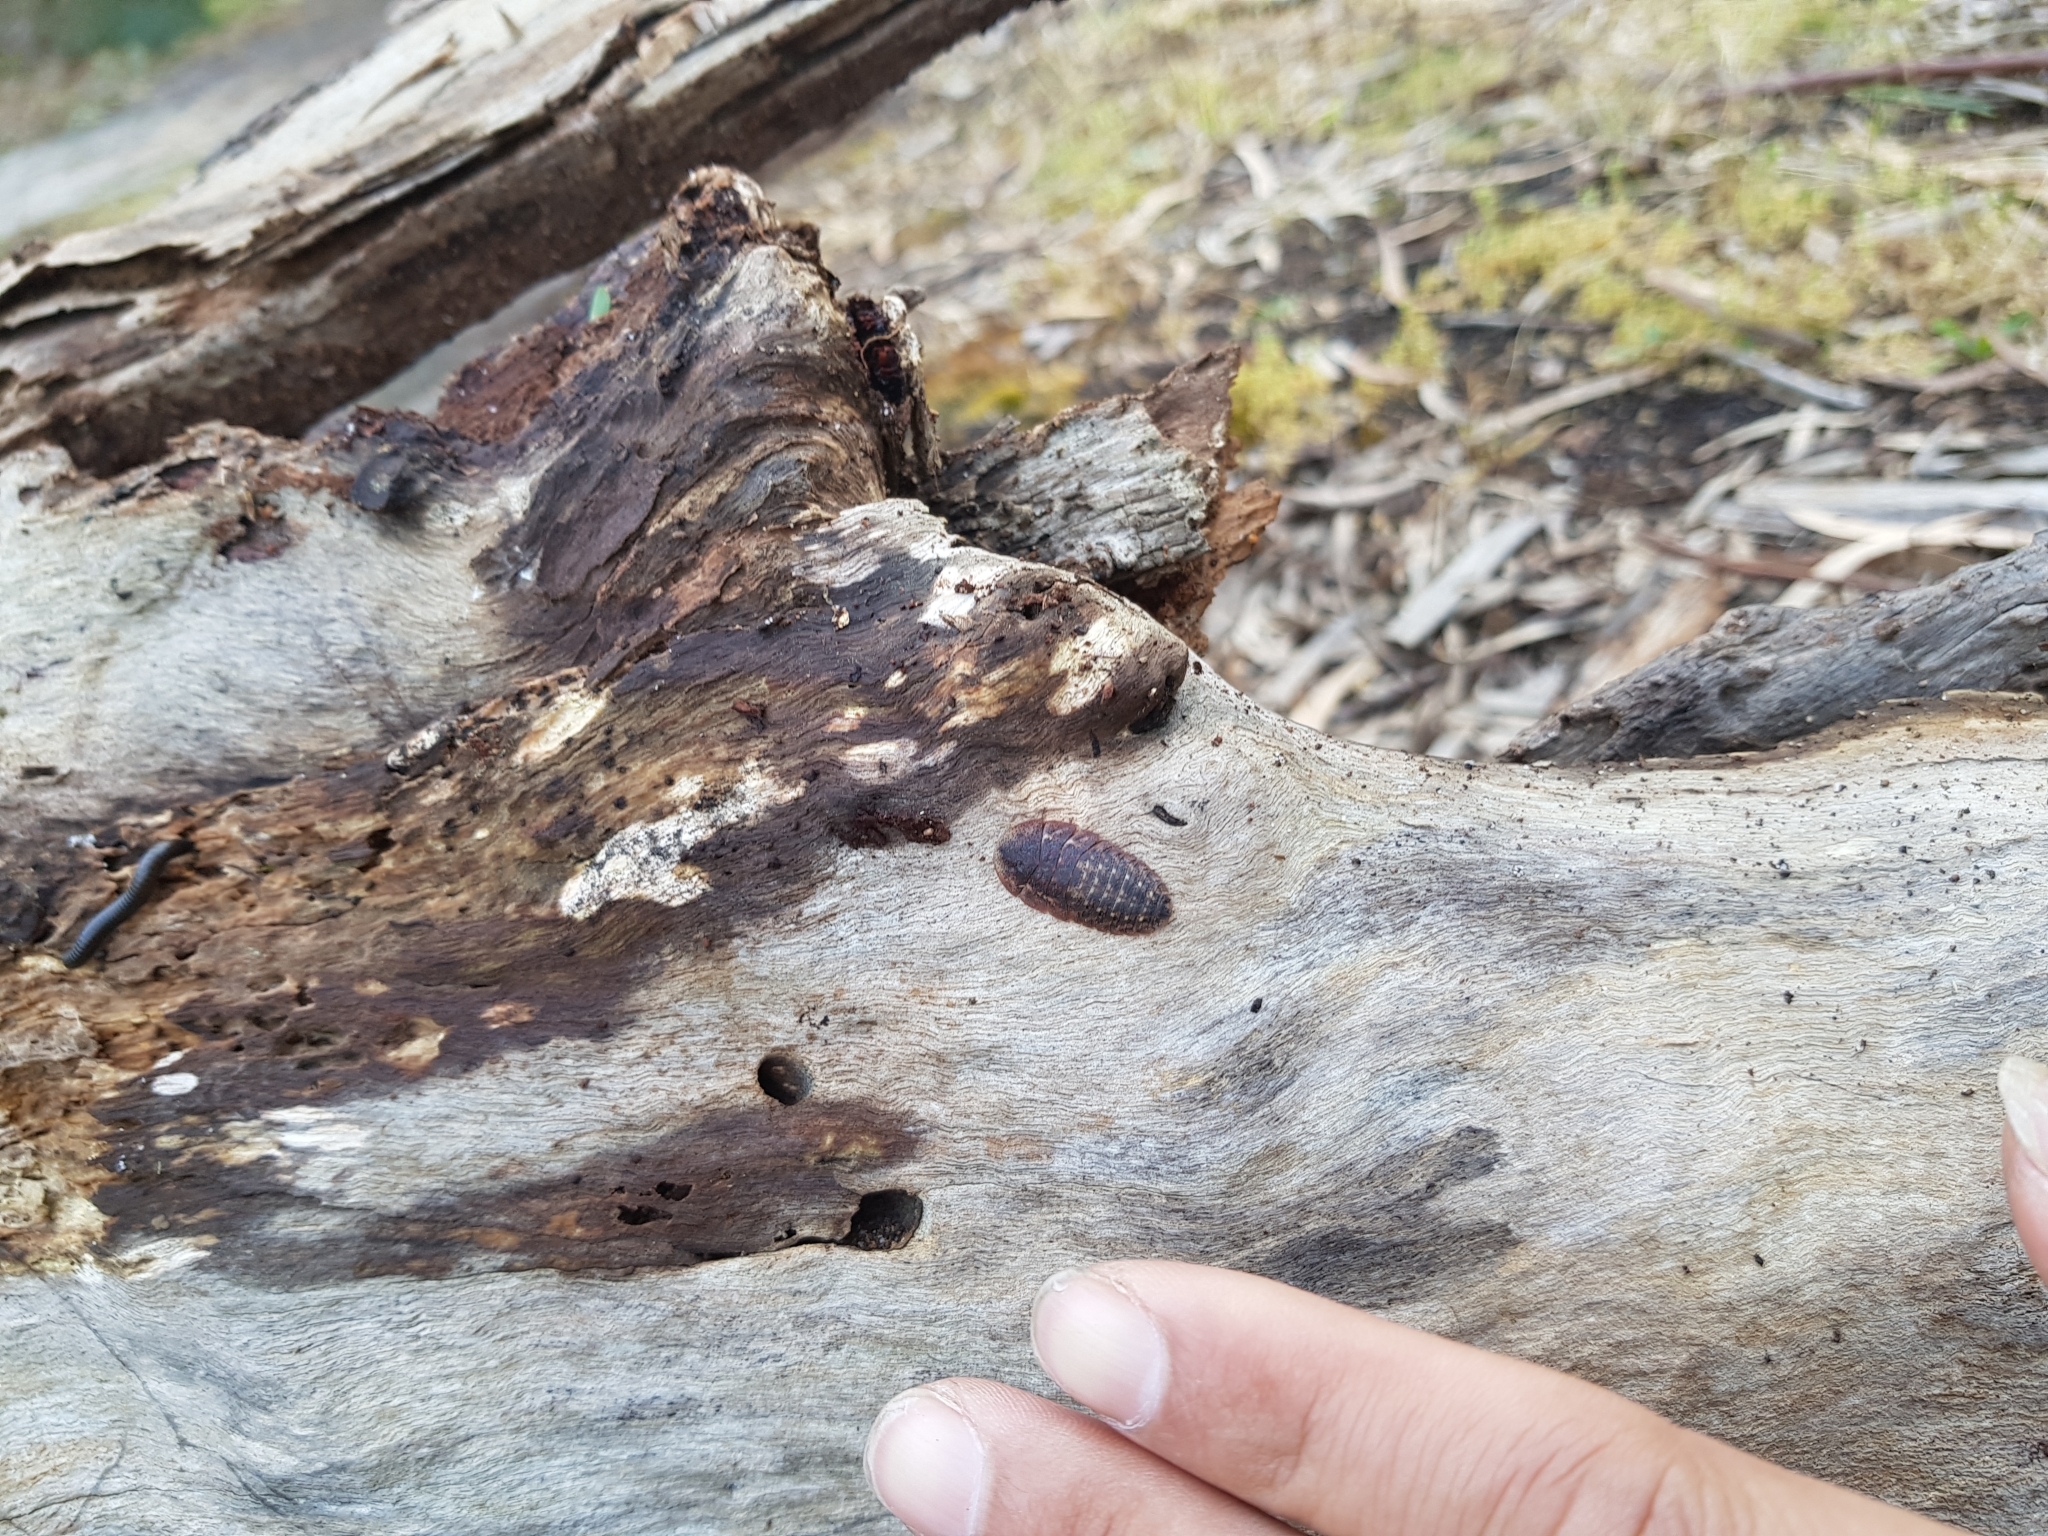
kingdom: Animalia
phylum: Arthropoda
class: Insecta
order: Blattodea
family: Blaberidae
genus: Laxta
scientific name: Laxta granicollis
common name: Bark cockroach
